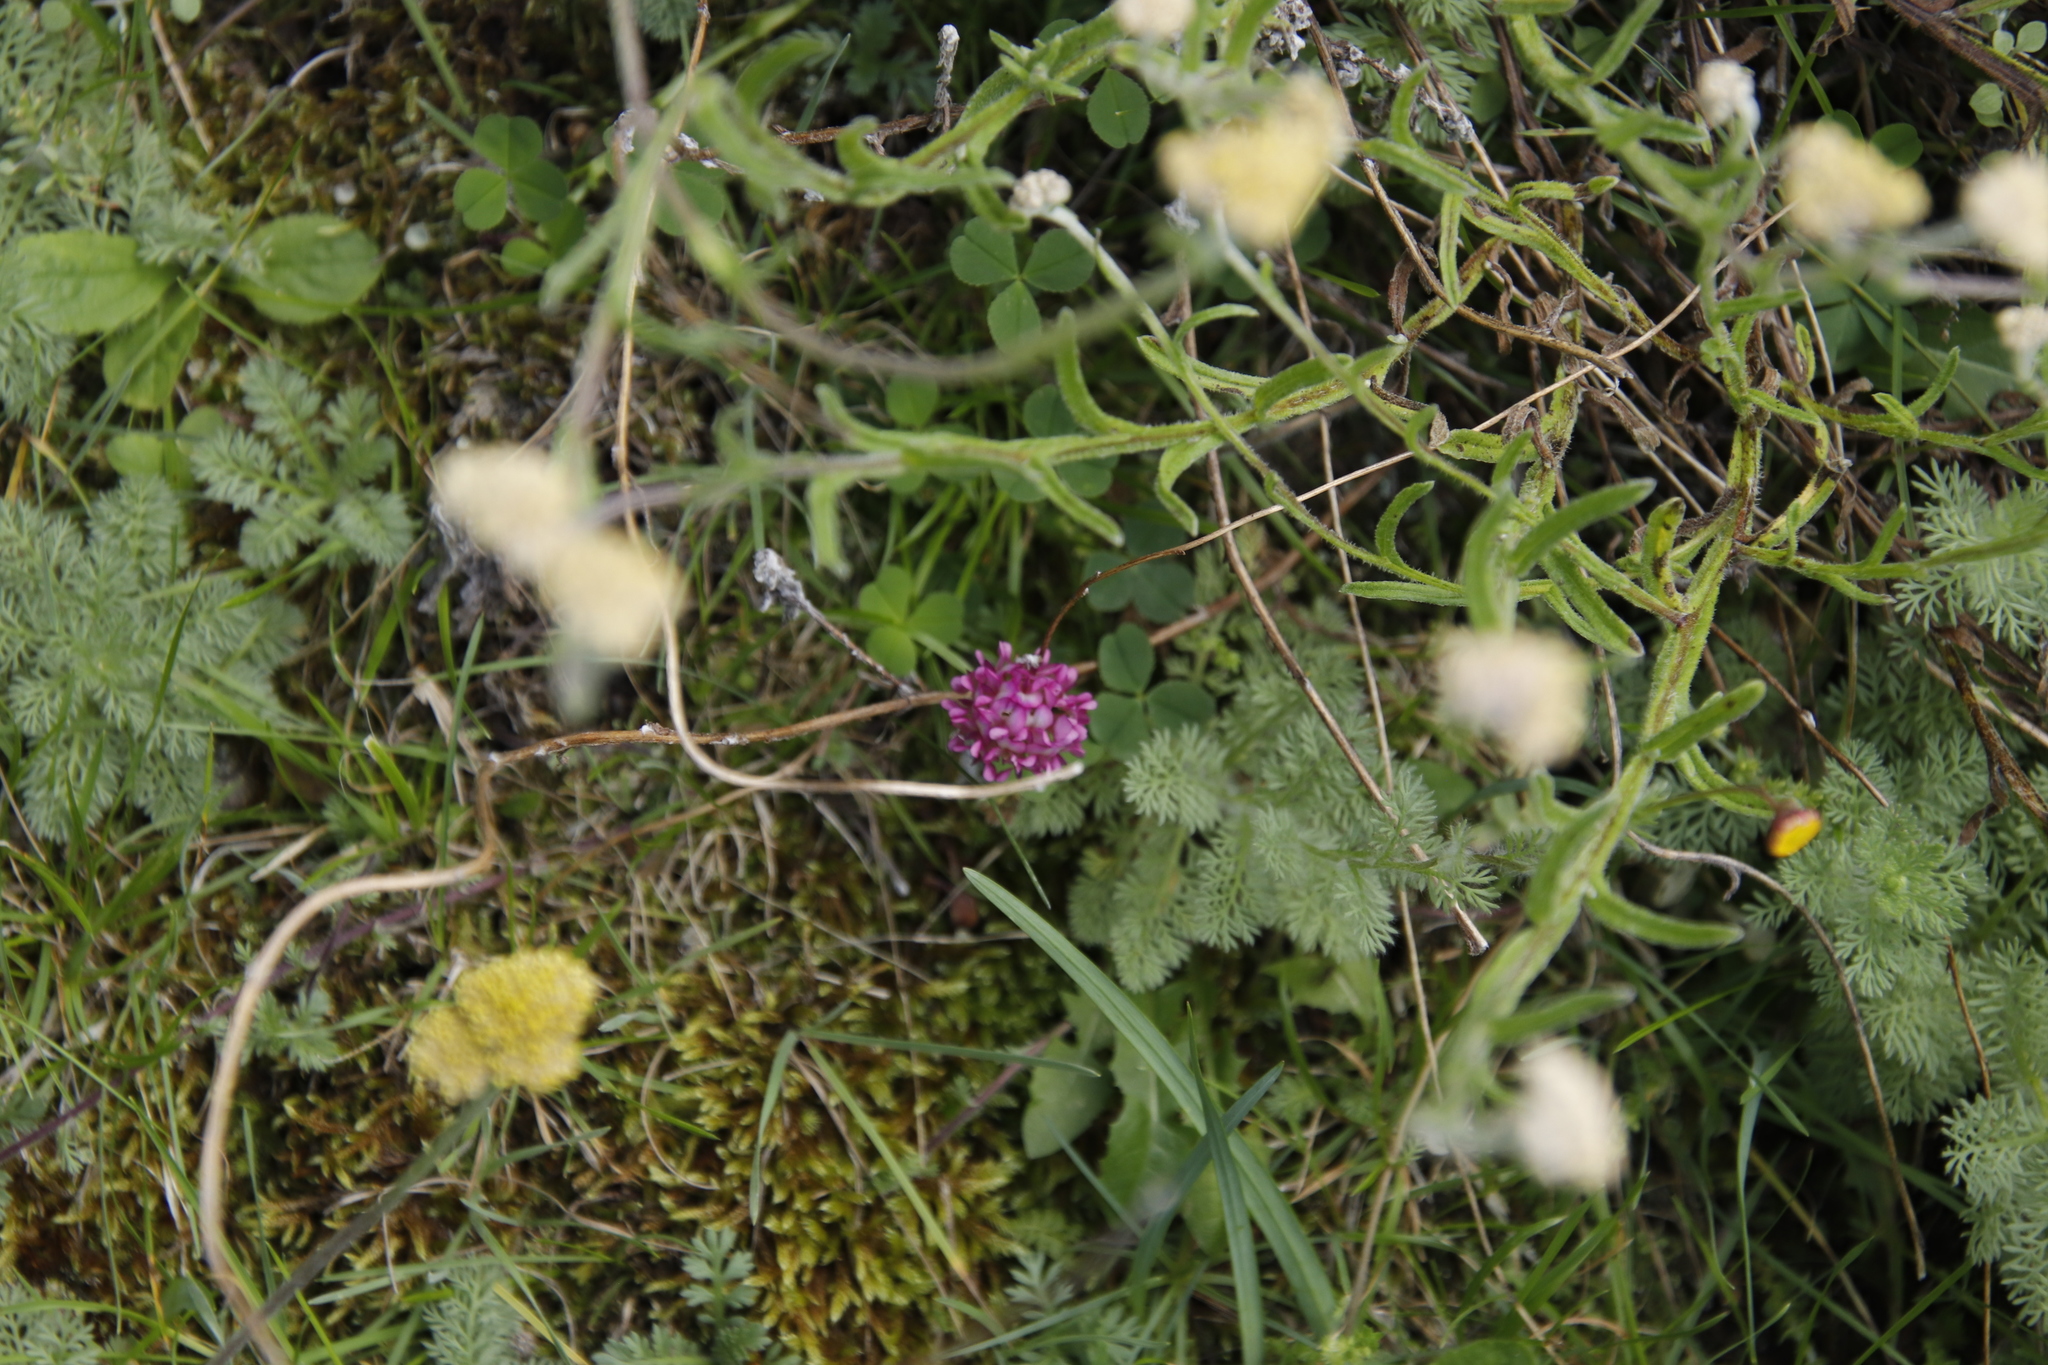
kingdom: Plantae
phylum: Tracheophyta
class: Magnoliopsida
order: Fabales
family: Fabaceae
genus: Trifolium
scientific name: Trifolium burchellianum
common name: Burchell's clover
